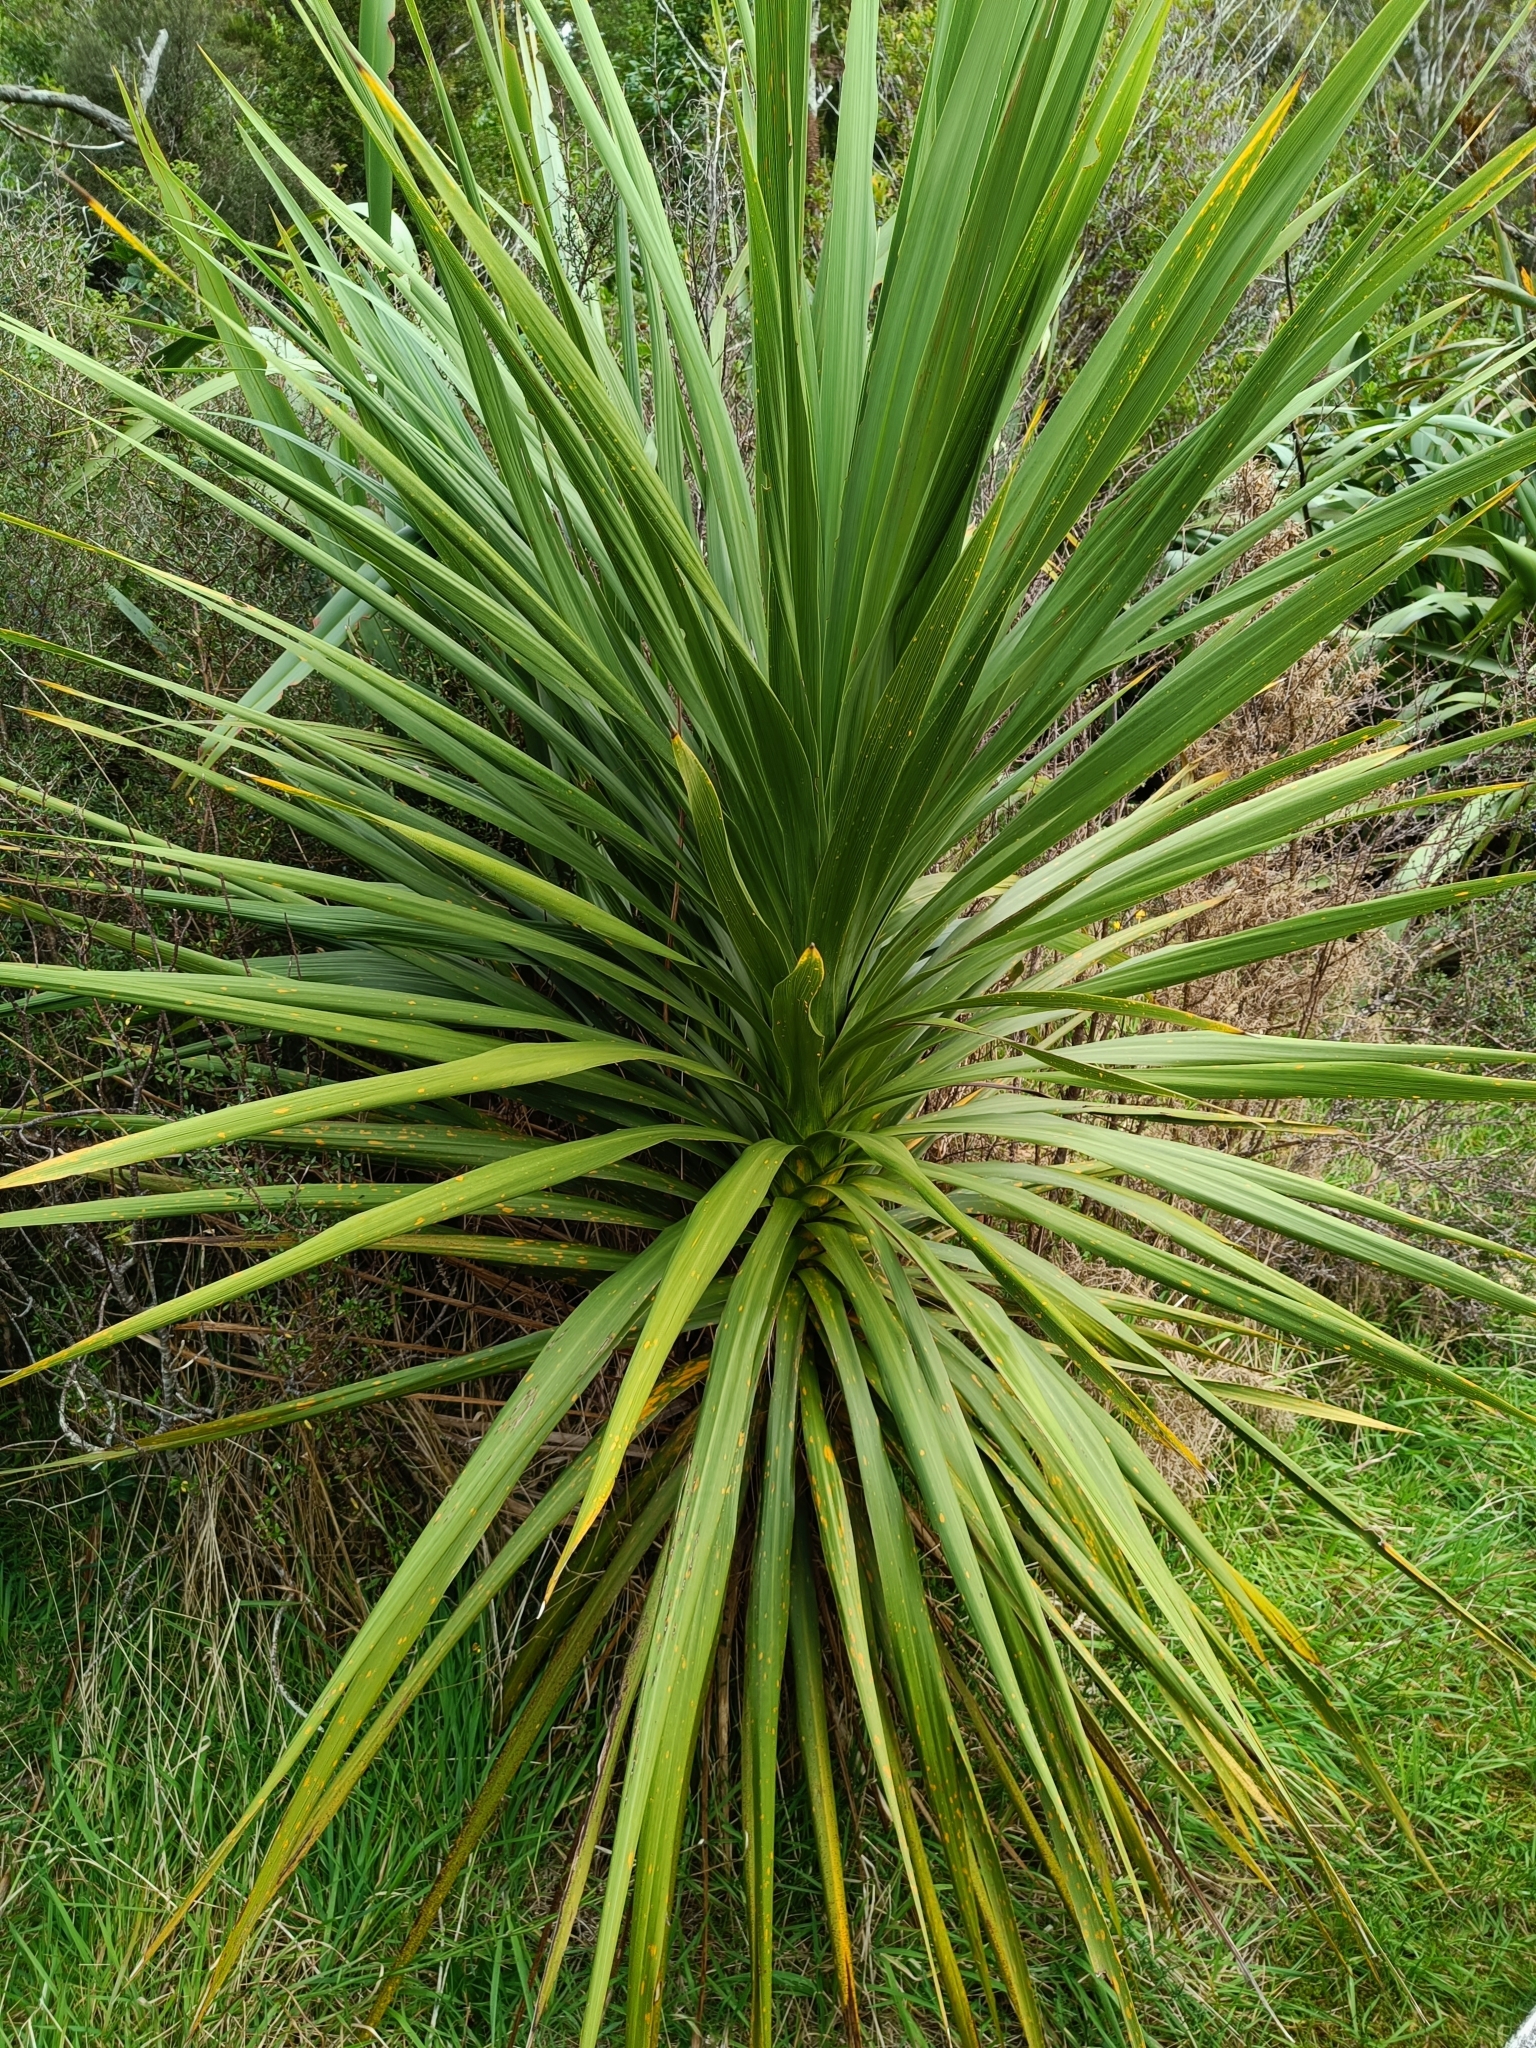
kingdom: Plantae
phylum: Tracheophyta
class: Liliopsida
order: Asparagales
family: Asparagaceae
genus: Cordyline
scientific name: Cordyline australis
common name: Cabbage-palm
